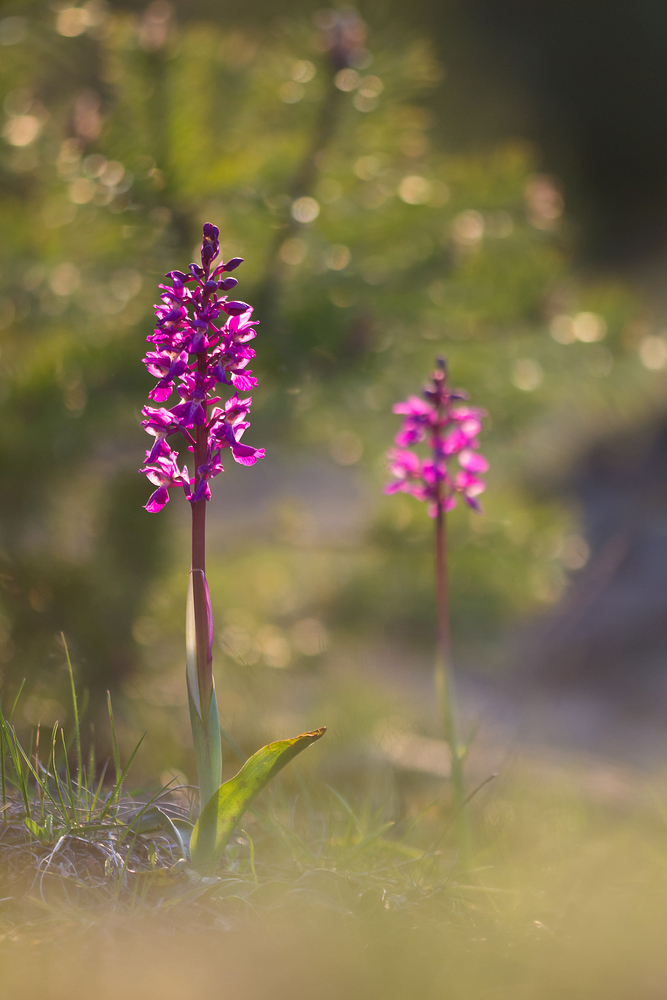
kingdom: Plantae
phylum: Tracheophyta
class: Liliopsida
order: Asparagales
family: Orchidaceae
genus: Orchis
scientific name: Orchis mascula
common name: Early-purple orchid
